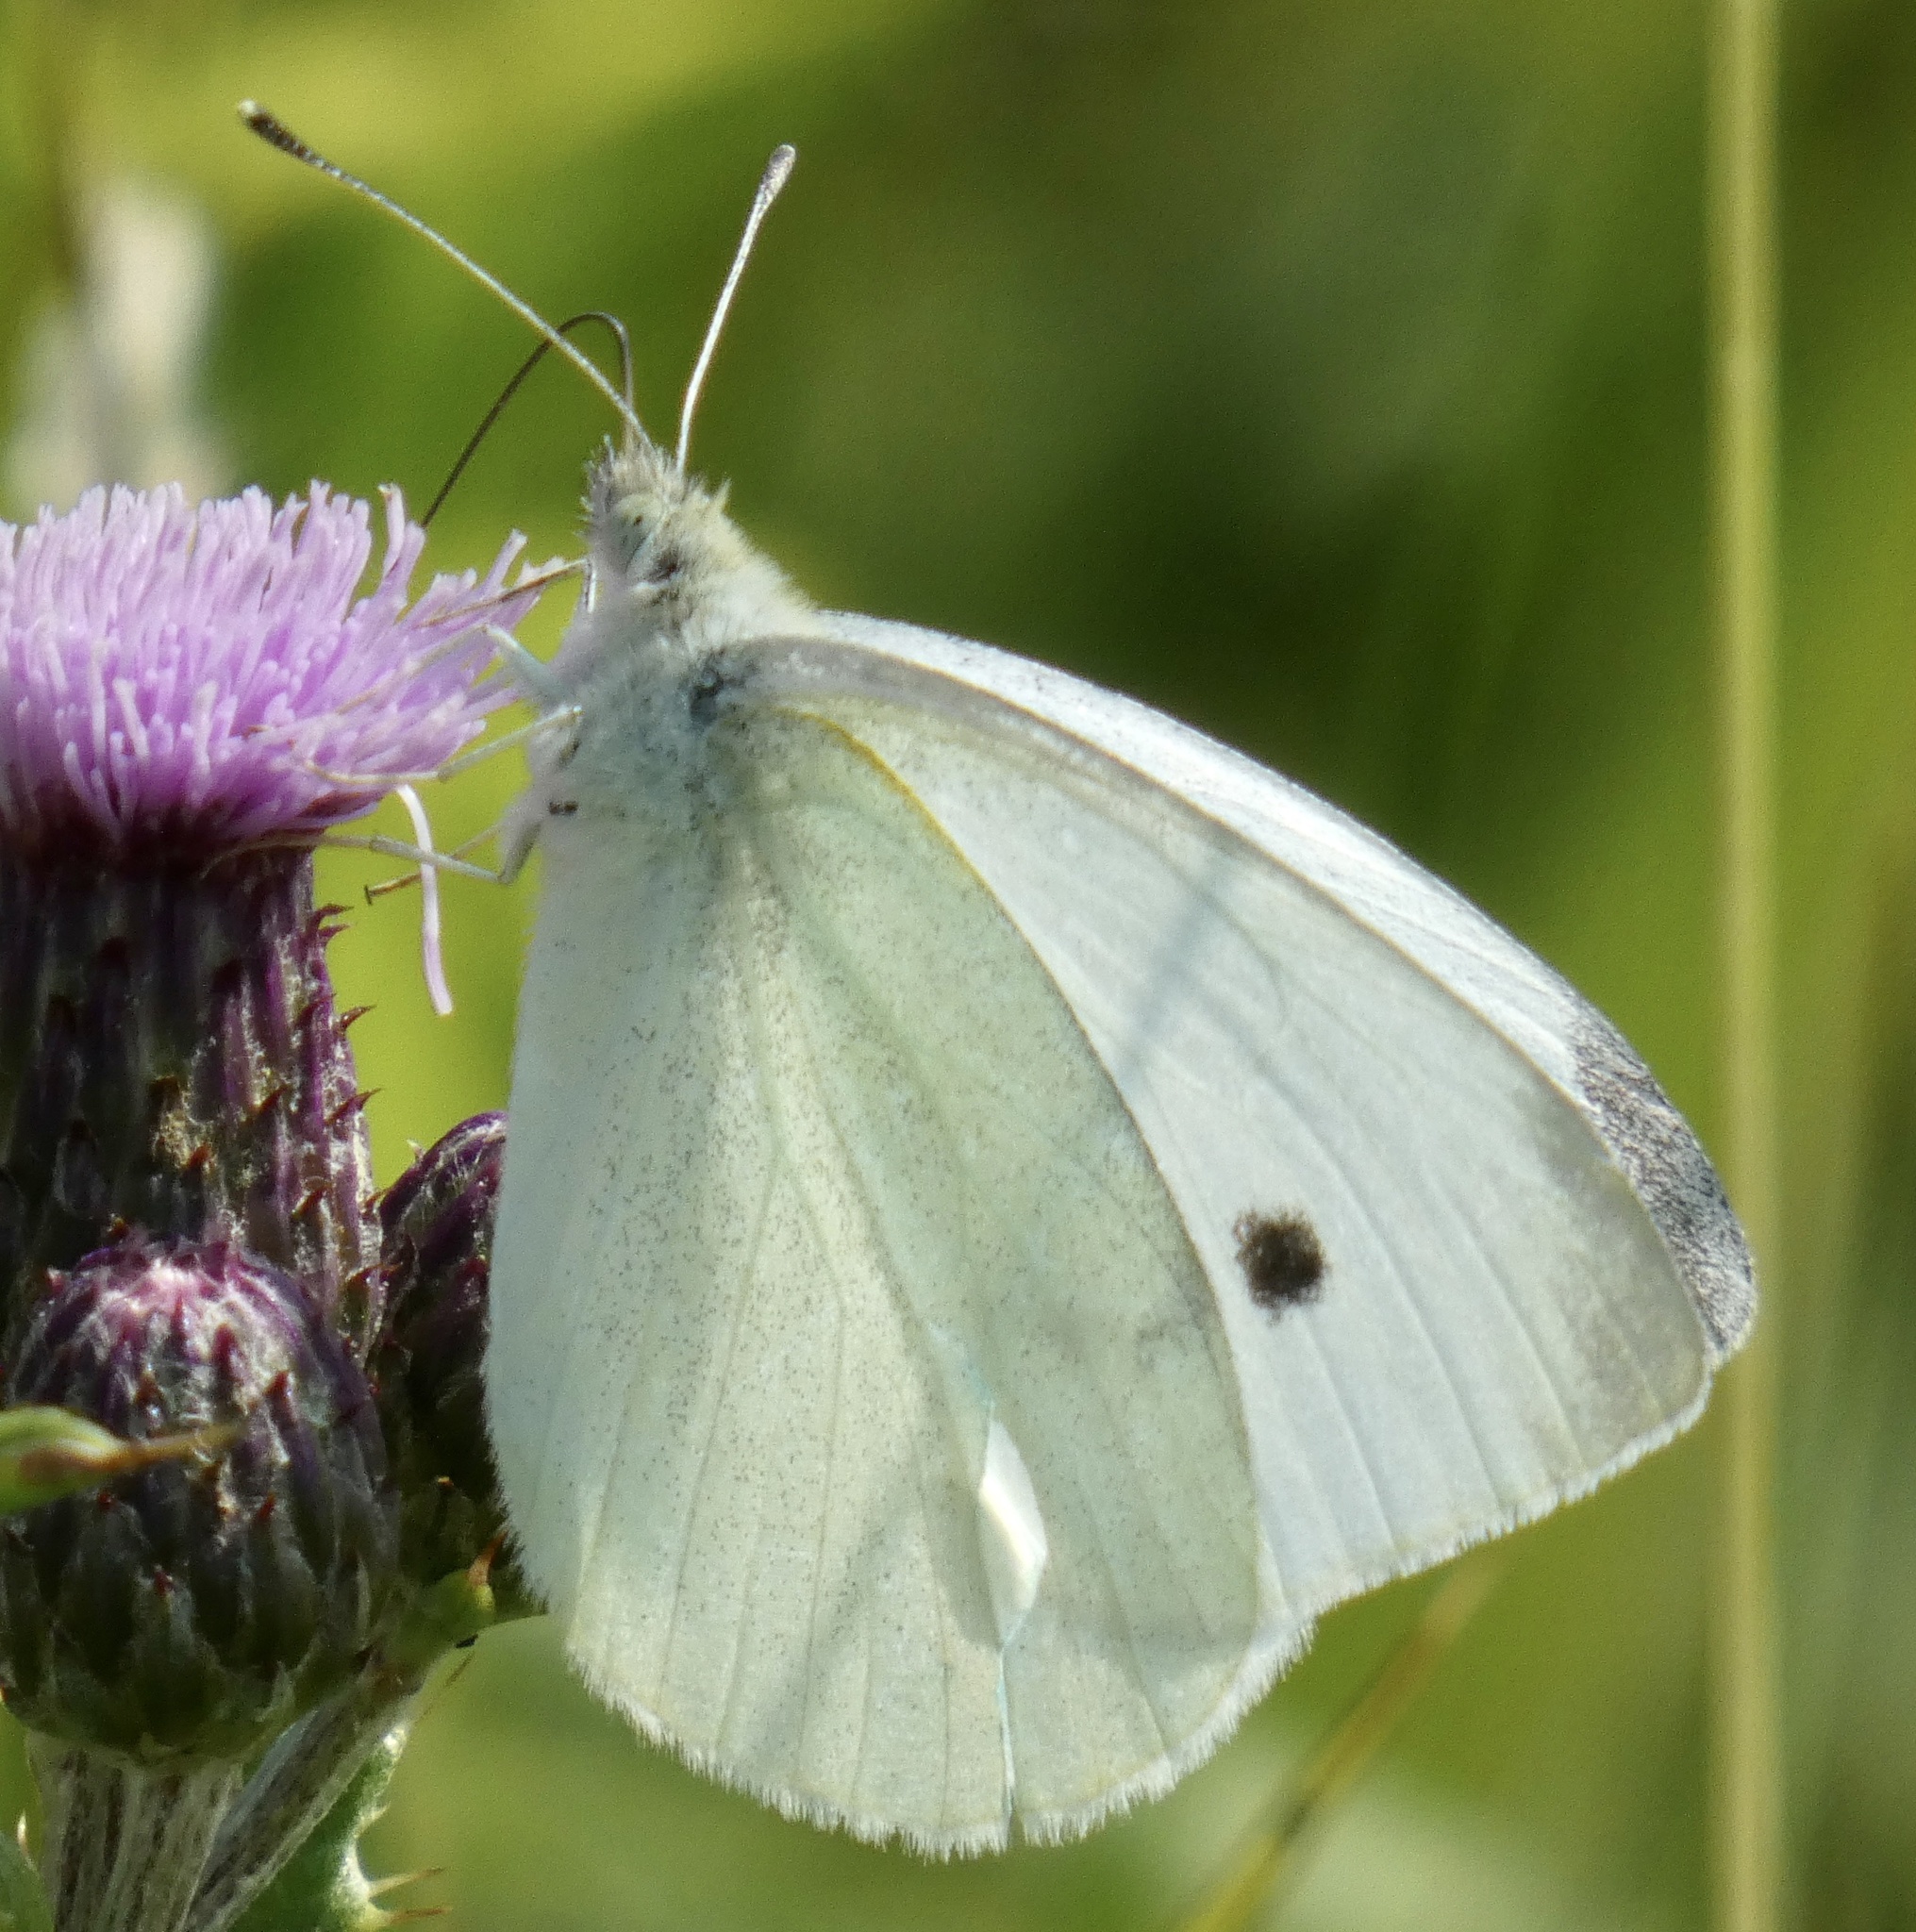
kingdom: Animalia
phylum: Arthropoda
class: Insecta
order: Lepidoptera
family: Pieridae
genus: Pieris
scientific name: Pieris rapae
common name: Small white
